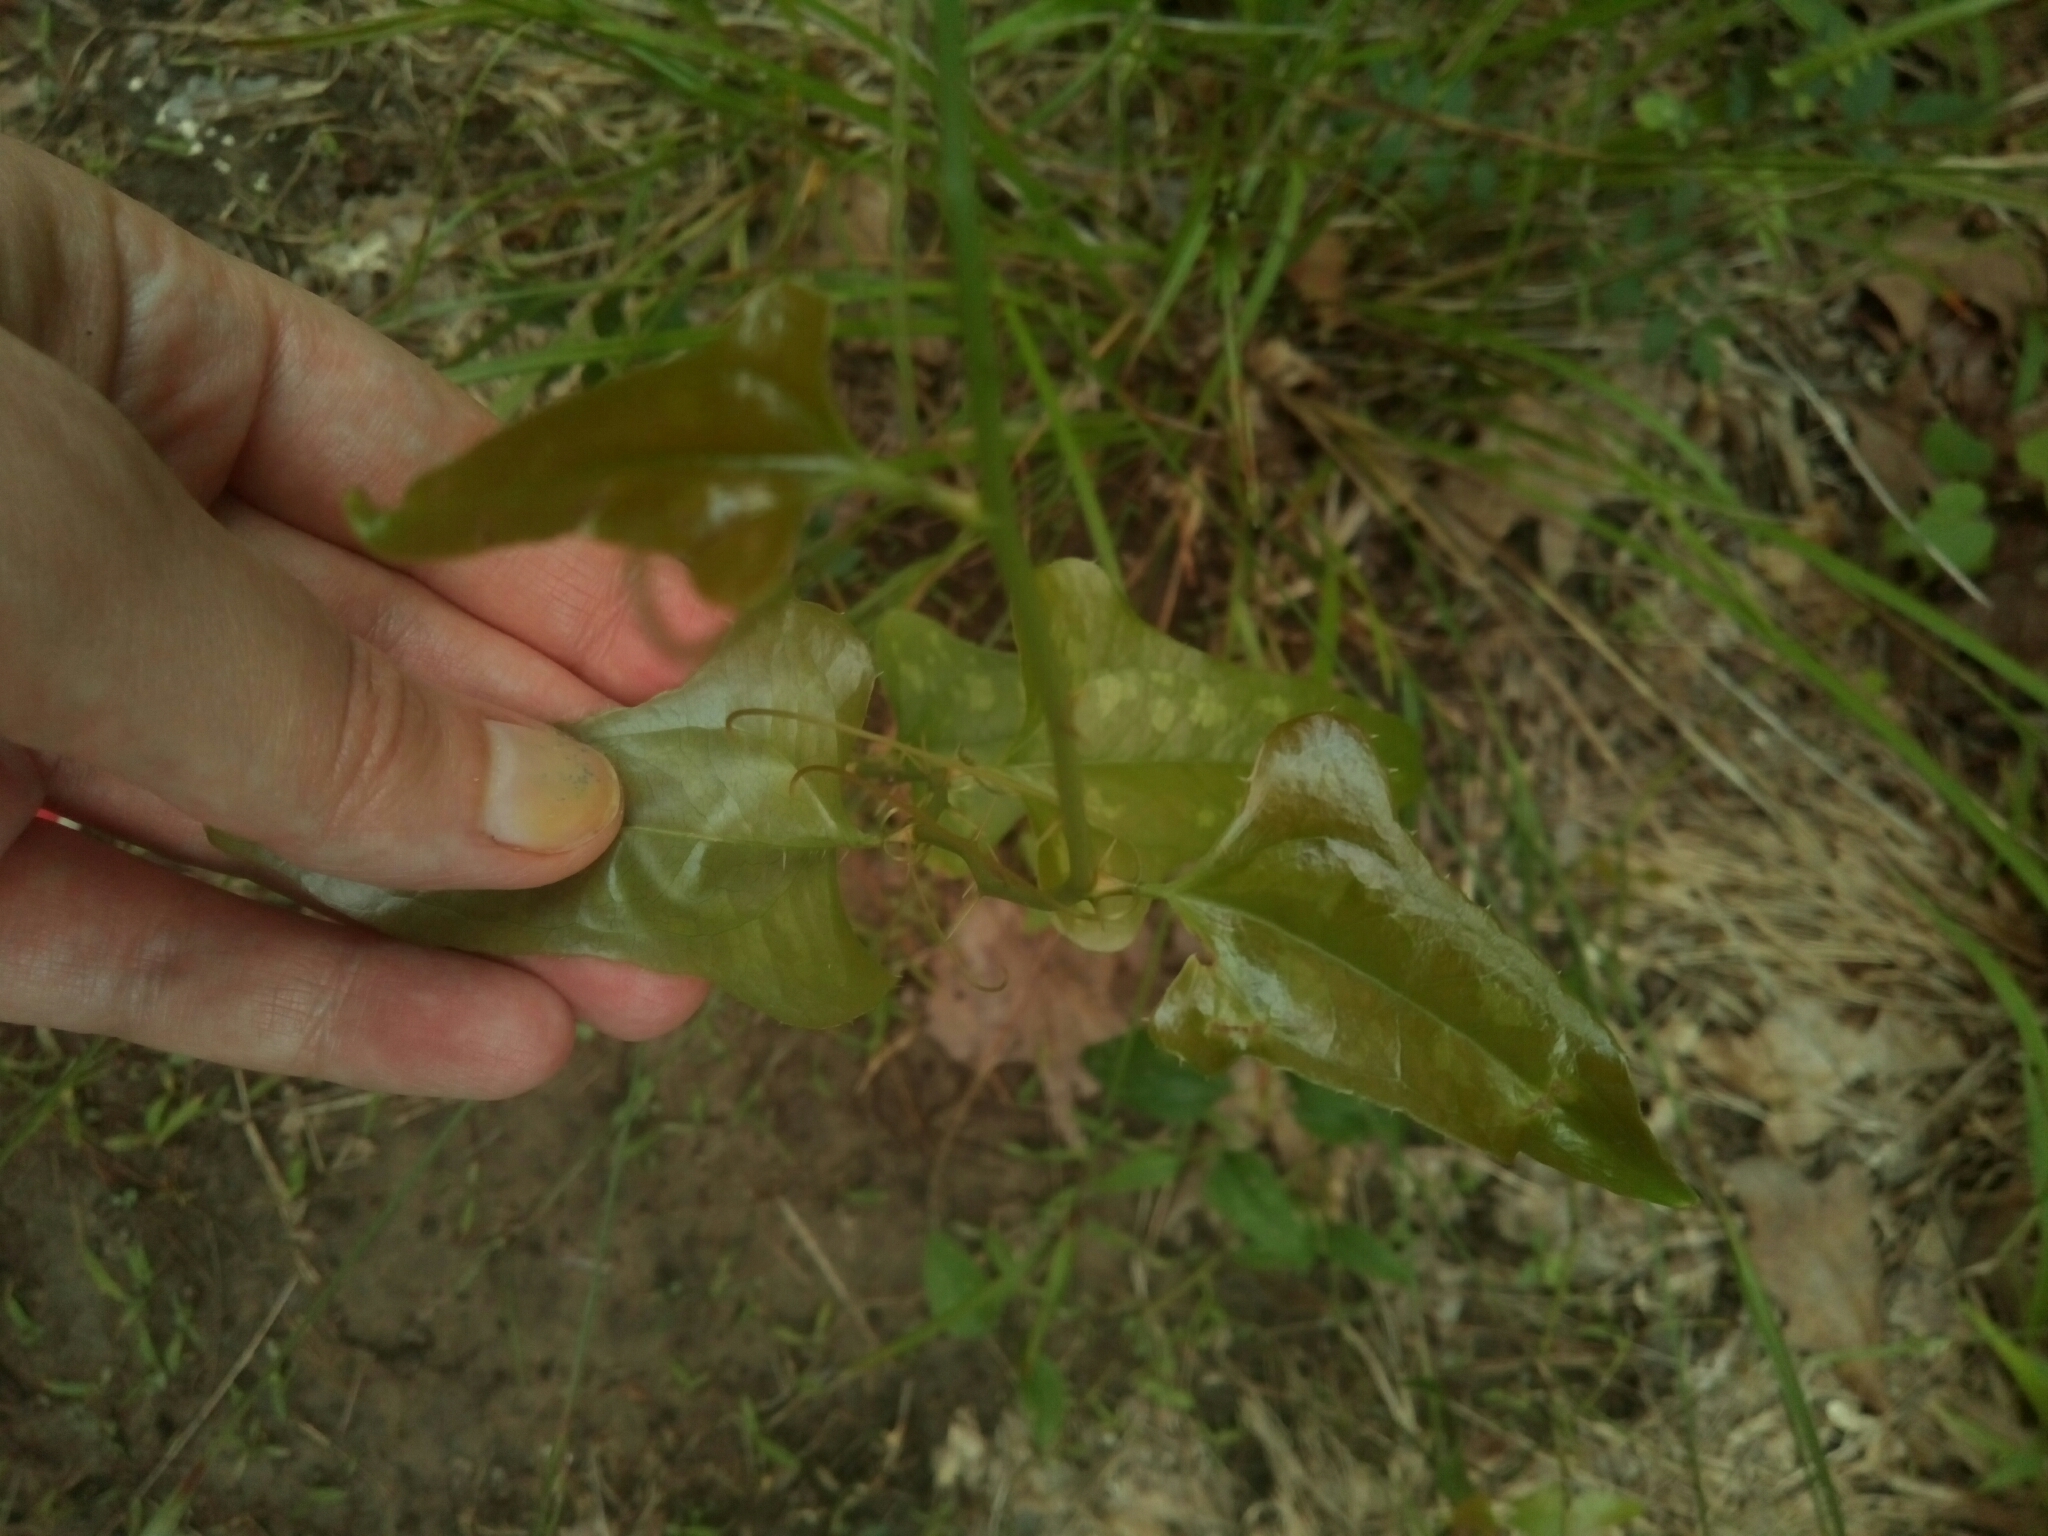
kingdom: Plantae
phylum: Tracheophyta
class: Liliopsida
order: Liliales
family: Smilacaceae
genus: Smilax
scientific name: Smilax bona-nox
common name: Catbrier
